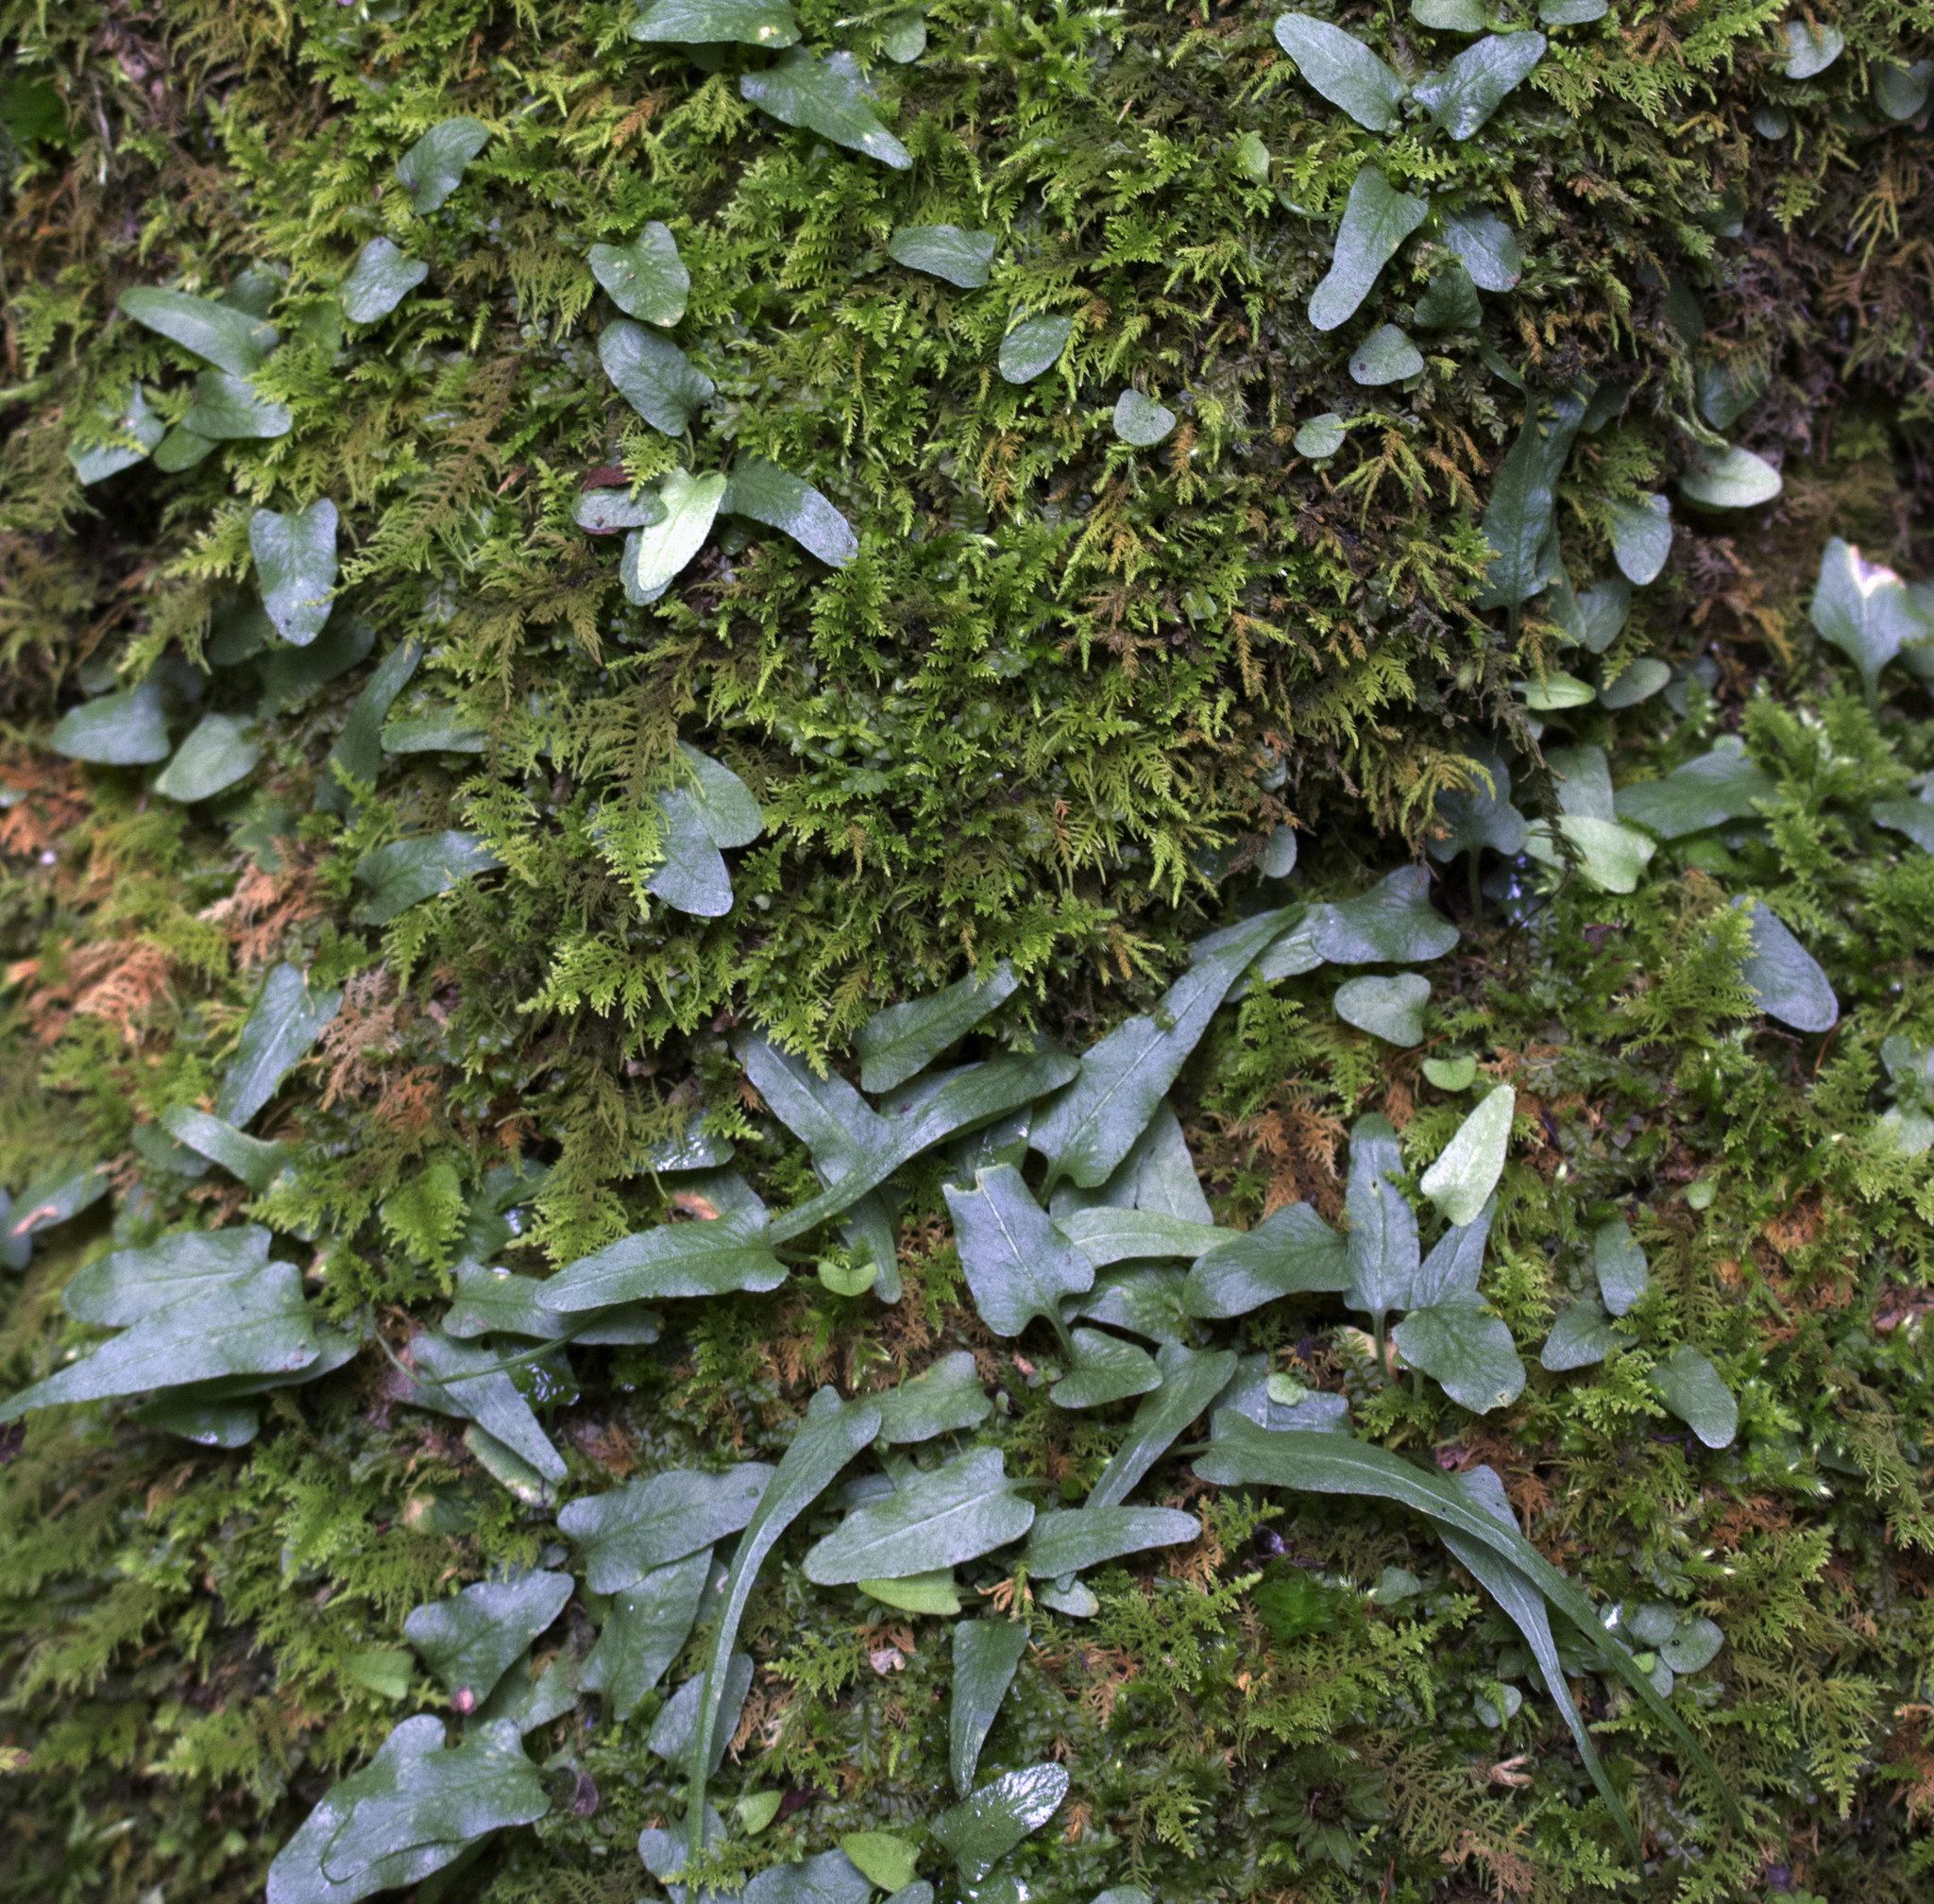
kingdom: Plantae
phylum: Tracheophyta
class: Polypodiopsida
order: Polypodiales
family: Aspleniaceae
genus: Asplenium
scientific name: Asplenium rhizophyllum
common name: Walking fern
